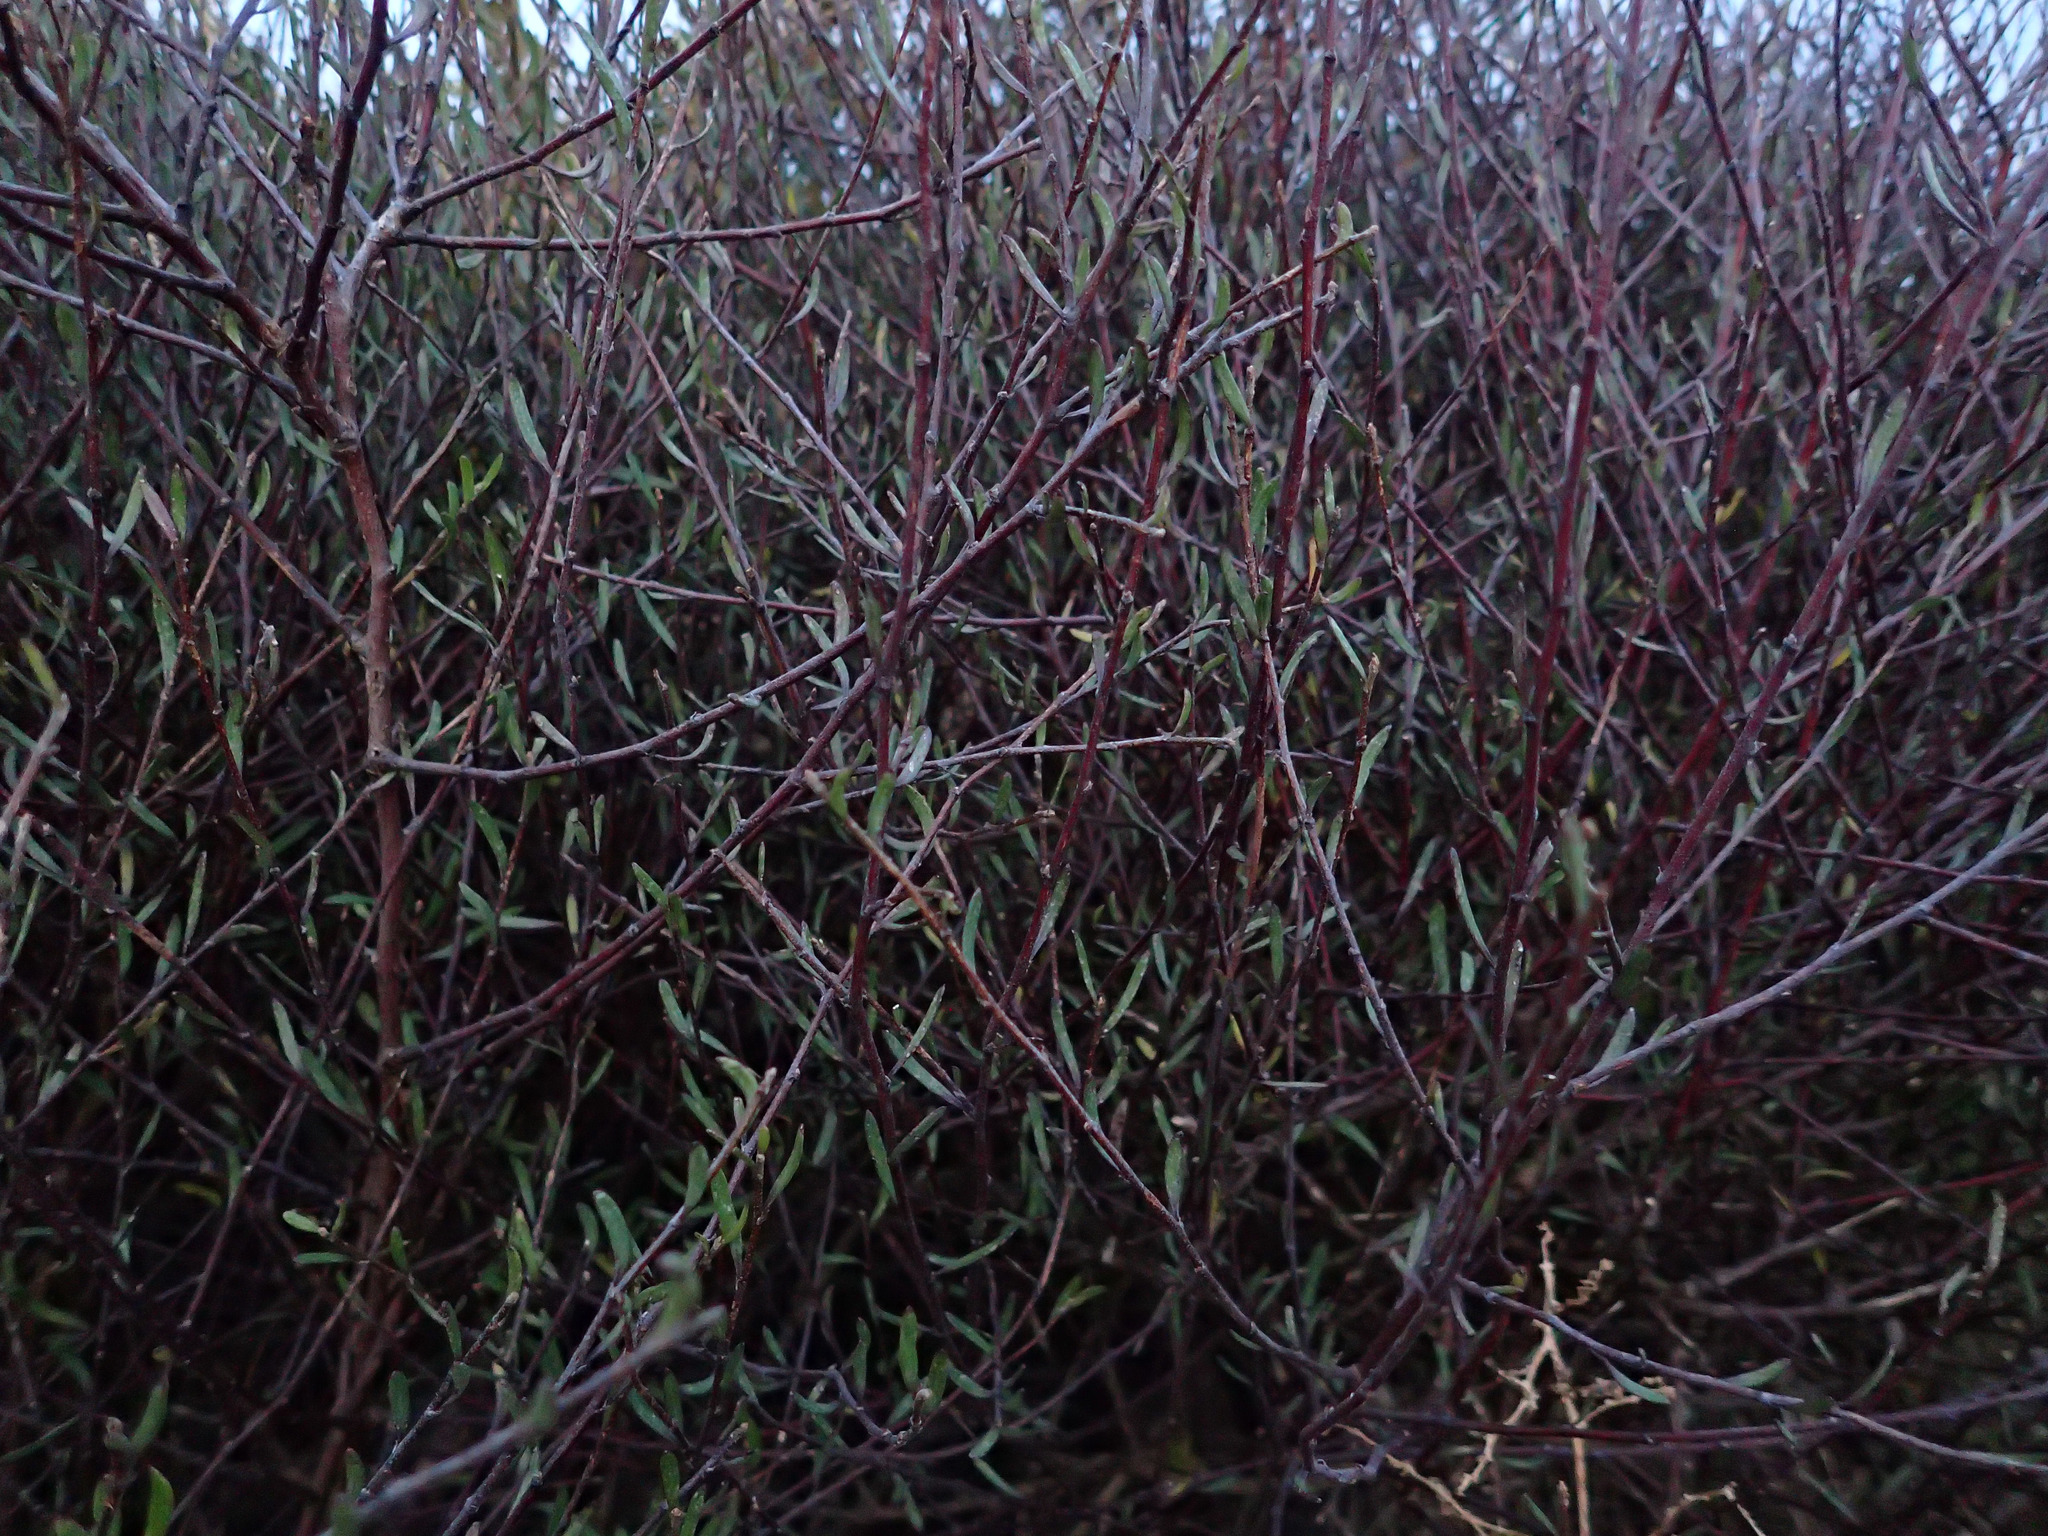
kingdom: Plantae
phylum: Tracheophyta
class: Magnoliopsida
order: Malvales
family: Malvaceae
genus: Plagianthus
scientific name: Plagianthus divaricatus
